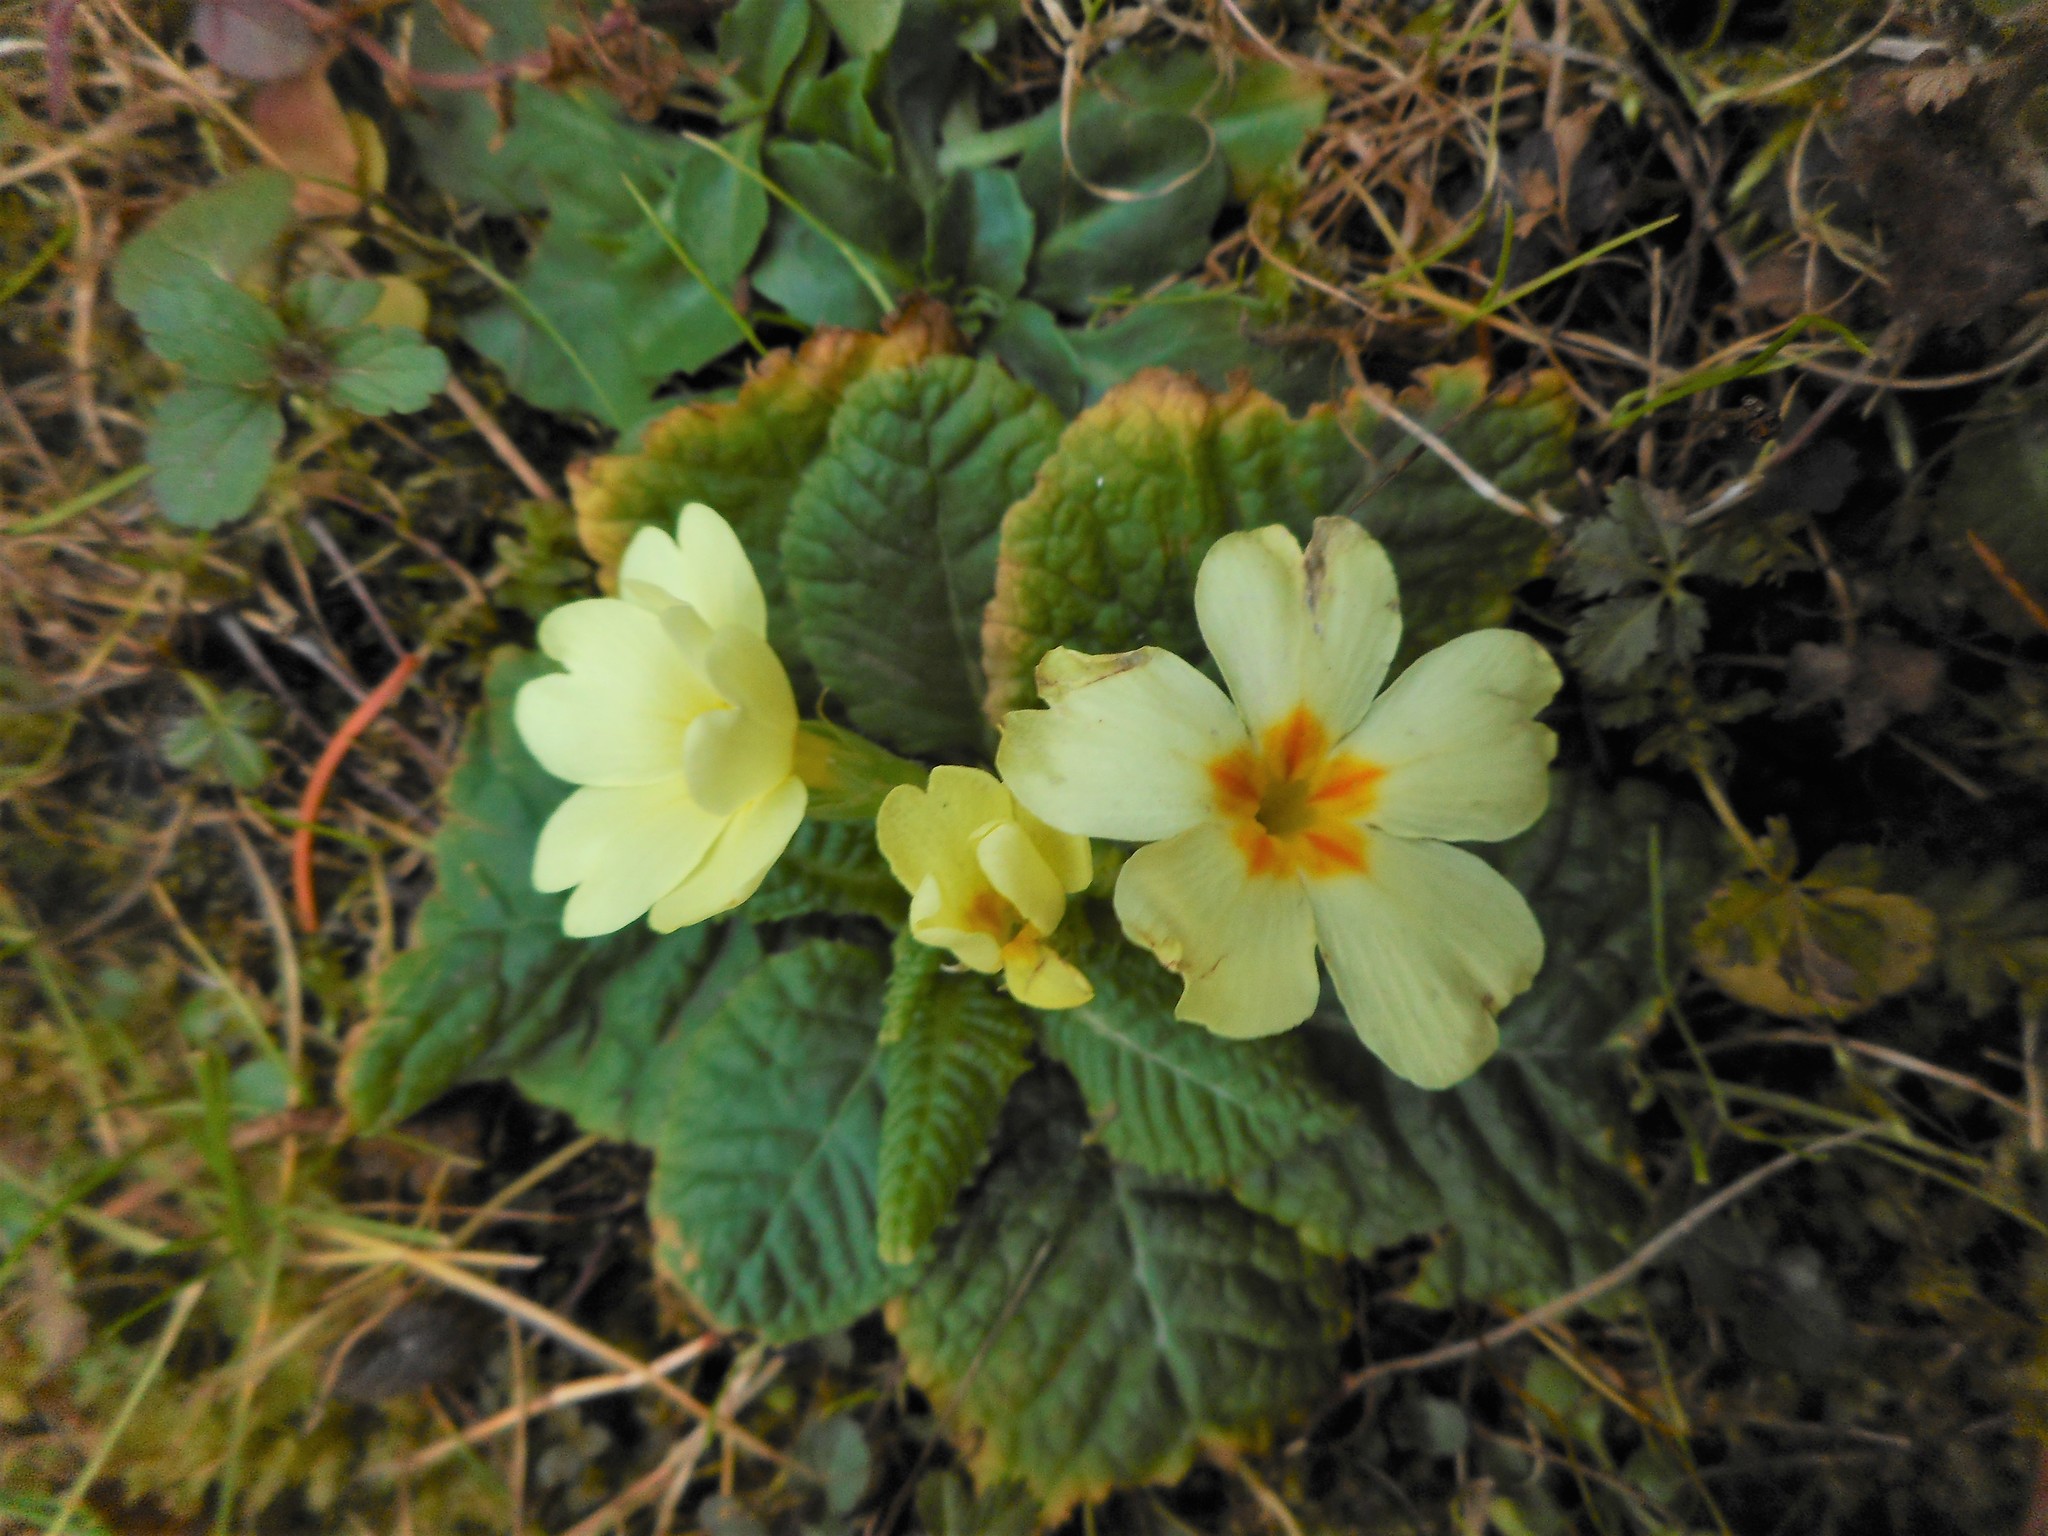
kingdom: Plantae
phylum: Tracheophyta
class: Magnoliopsida
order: Ericales
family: Primulaceae
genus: Primula
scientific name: Primula vulgaris
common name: Primrose
